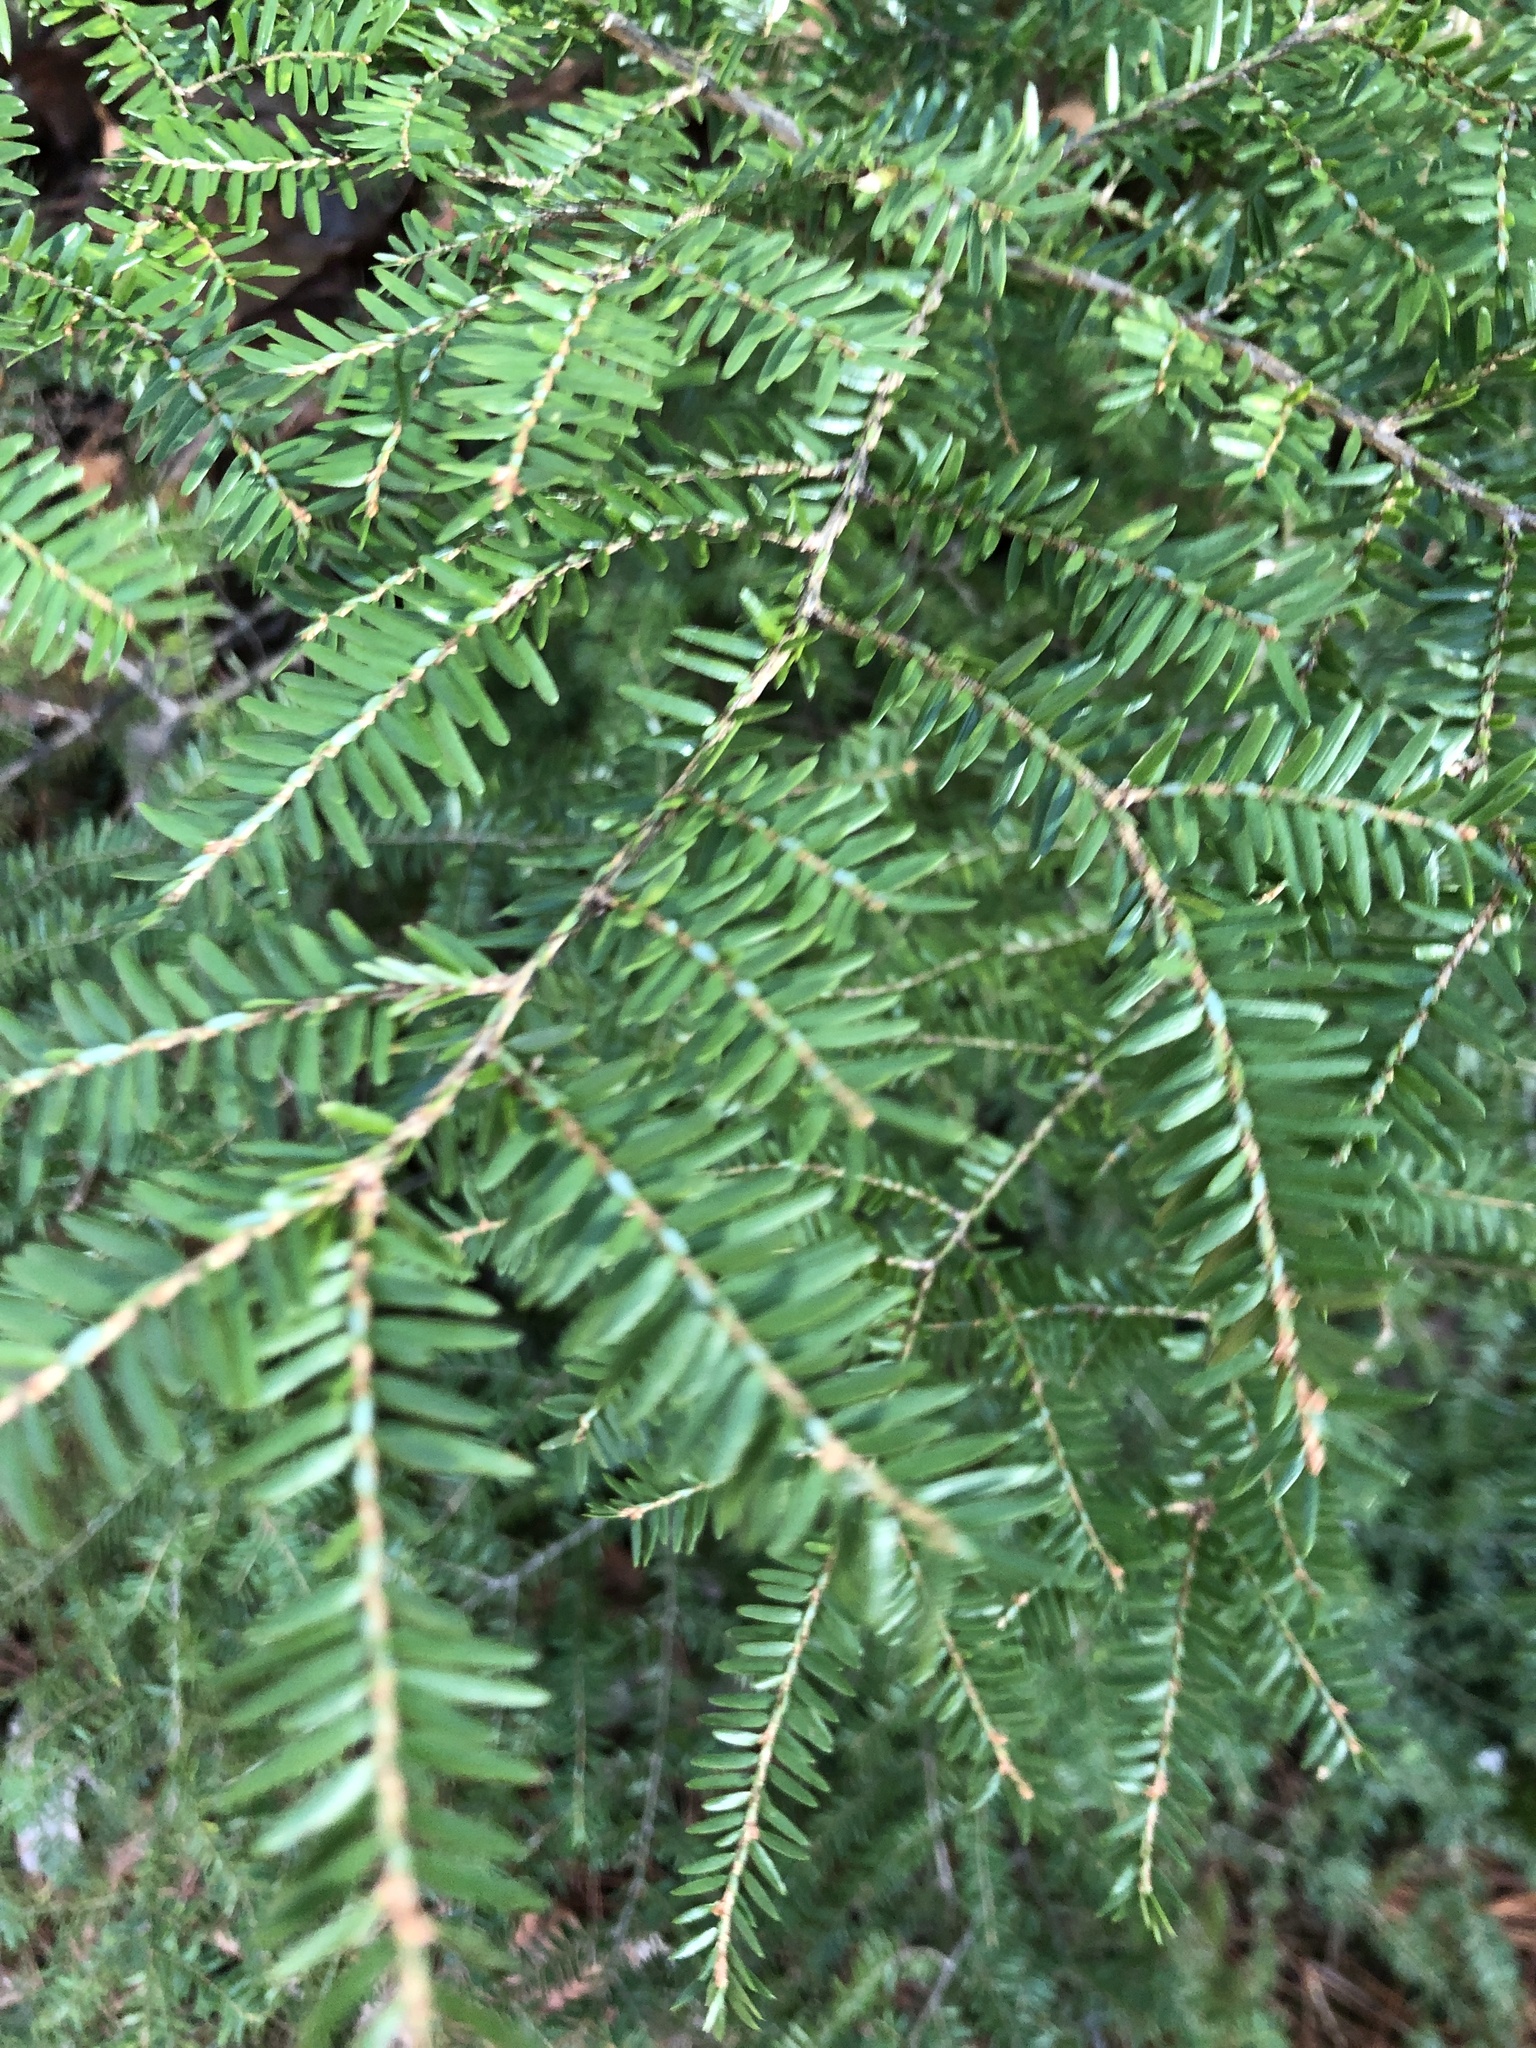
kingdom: Plantae
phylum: Tracheophyta
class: Pinopsida
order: Pinales
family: Pinaceae
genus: Tsuga
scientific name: Tsuga canadensis
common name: Eastern hemlock
